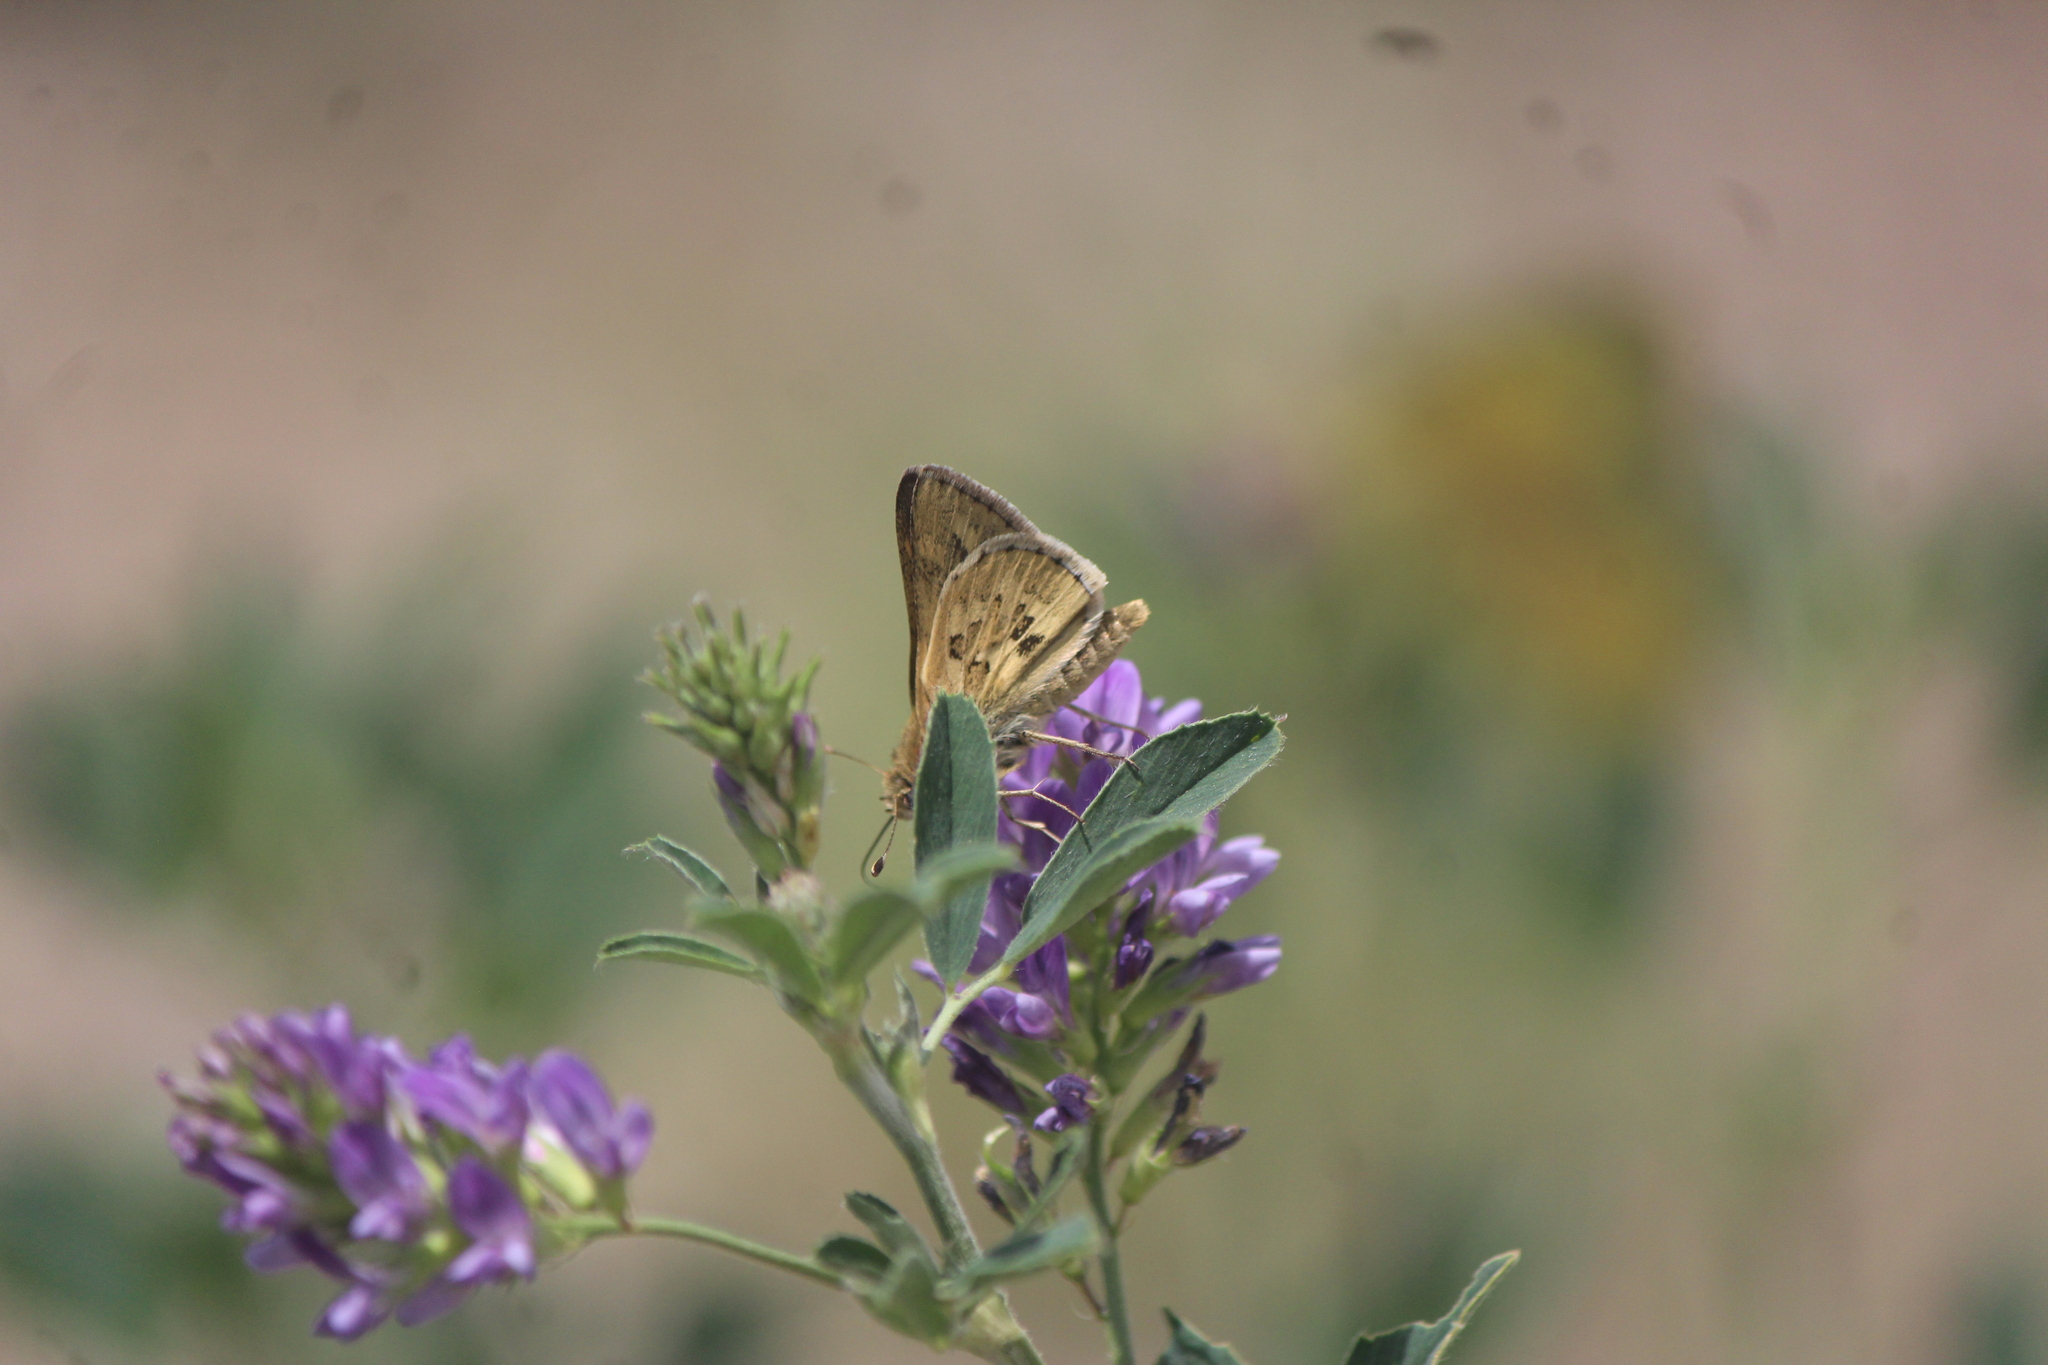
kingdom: Animalia
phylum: Arthropoda
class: Insecta
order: Lepidoptera
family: Hesperiidae
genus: Yvretta
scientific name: Yvretta carus
